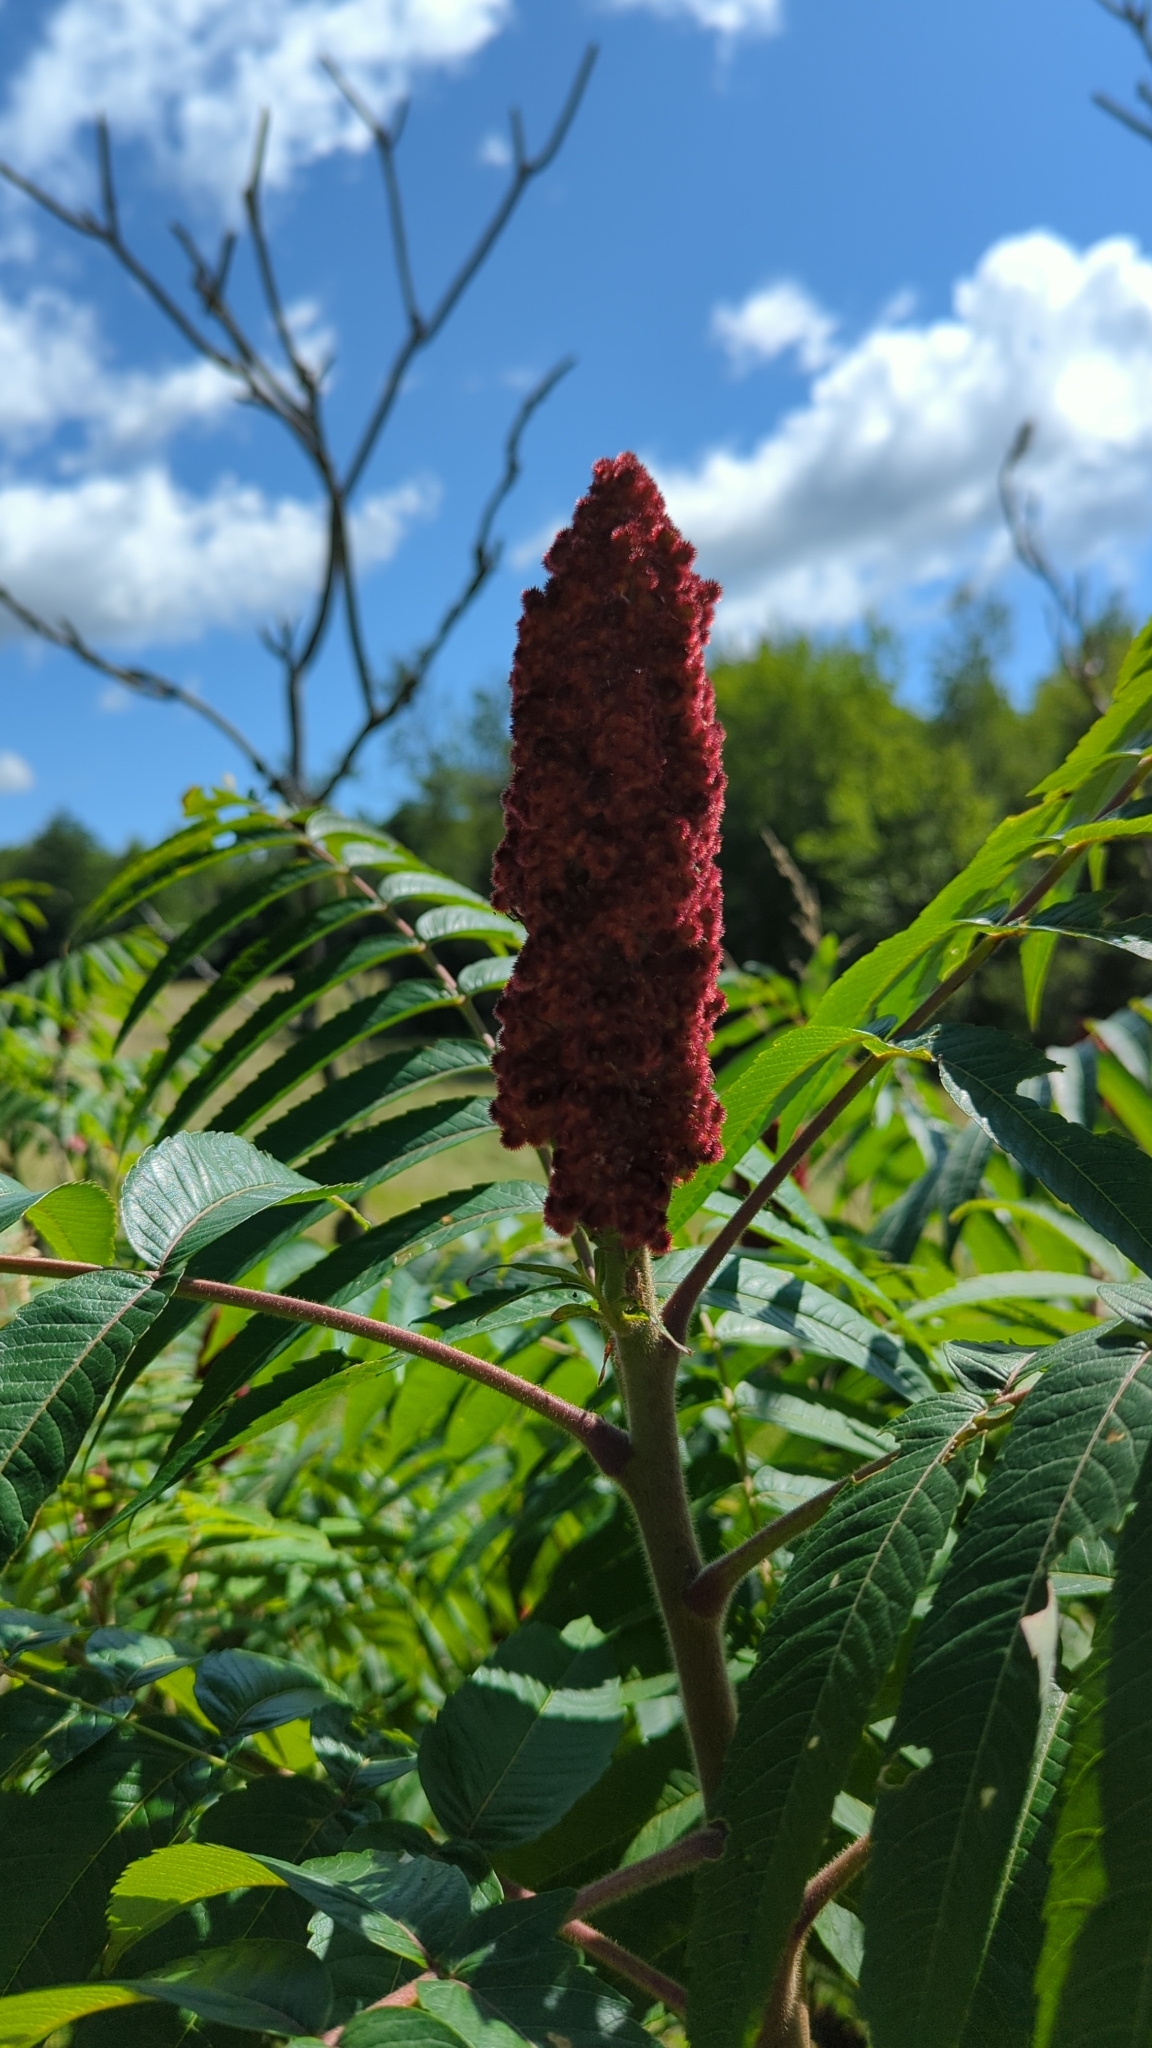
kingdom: Plantae
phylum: Tracheophyta
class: Magnoliopsida
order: Sapindales
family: Anacardiaceae
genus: Rhus
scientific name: Rhus typhina
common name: Staghorn sumac
